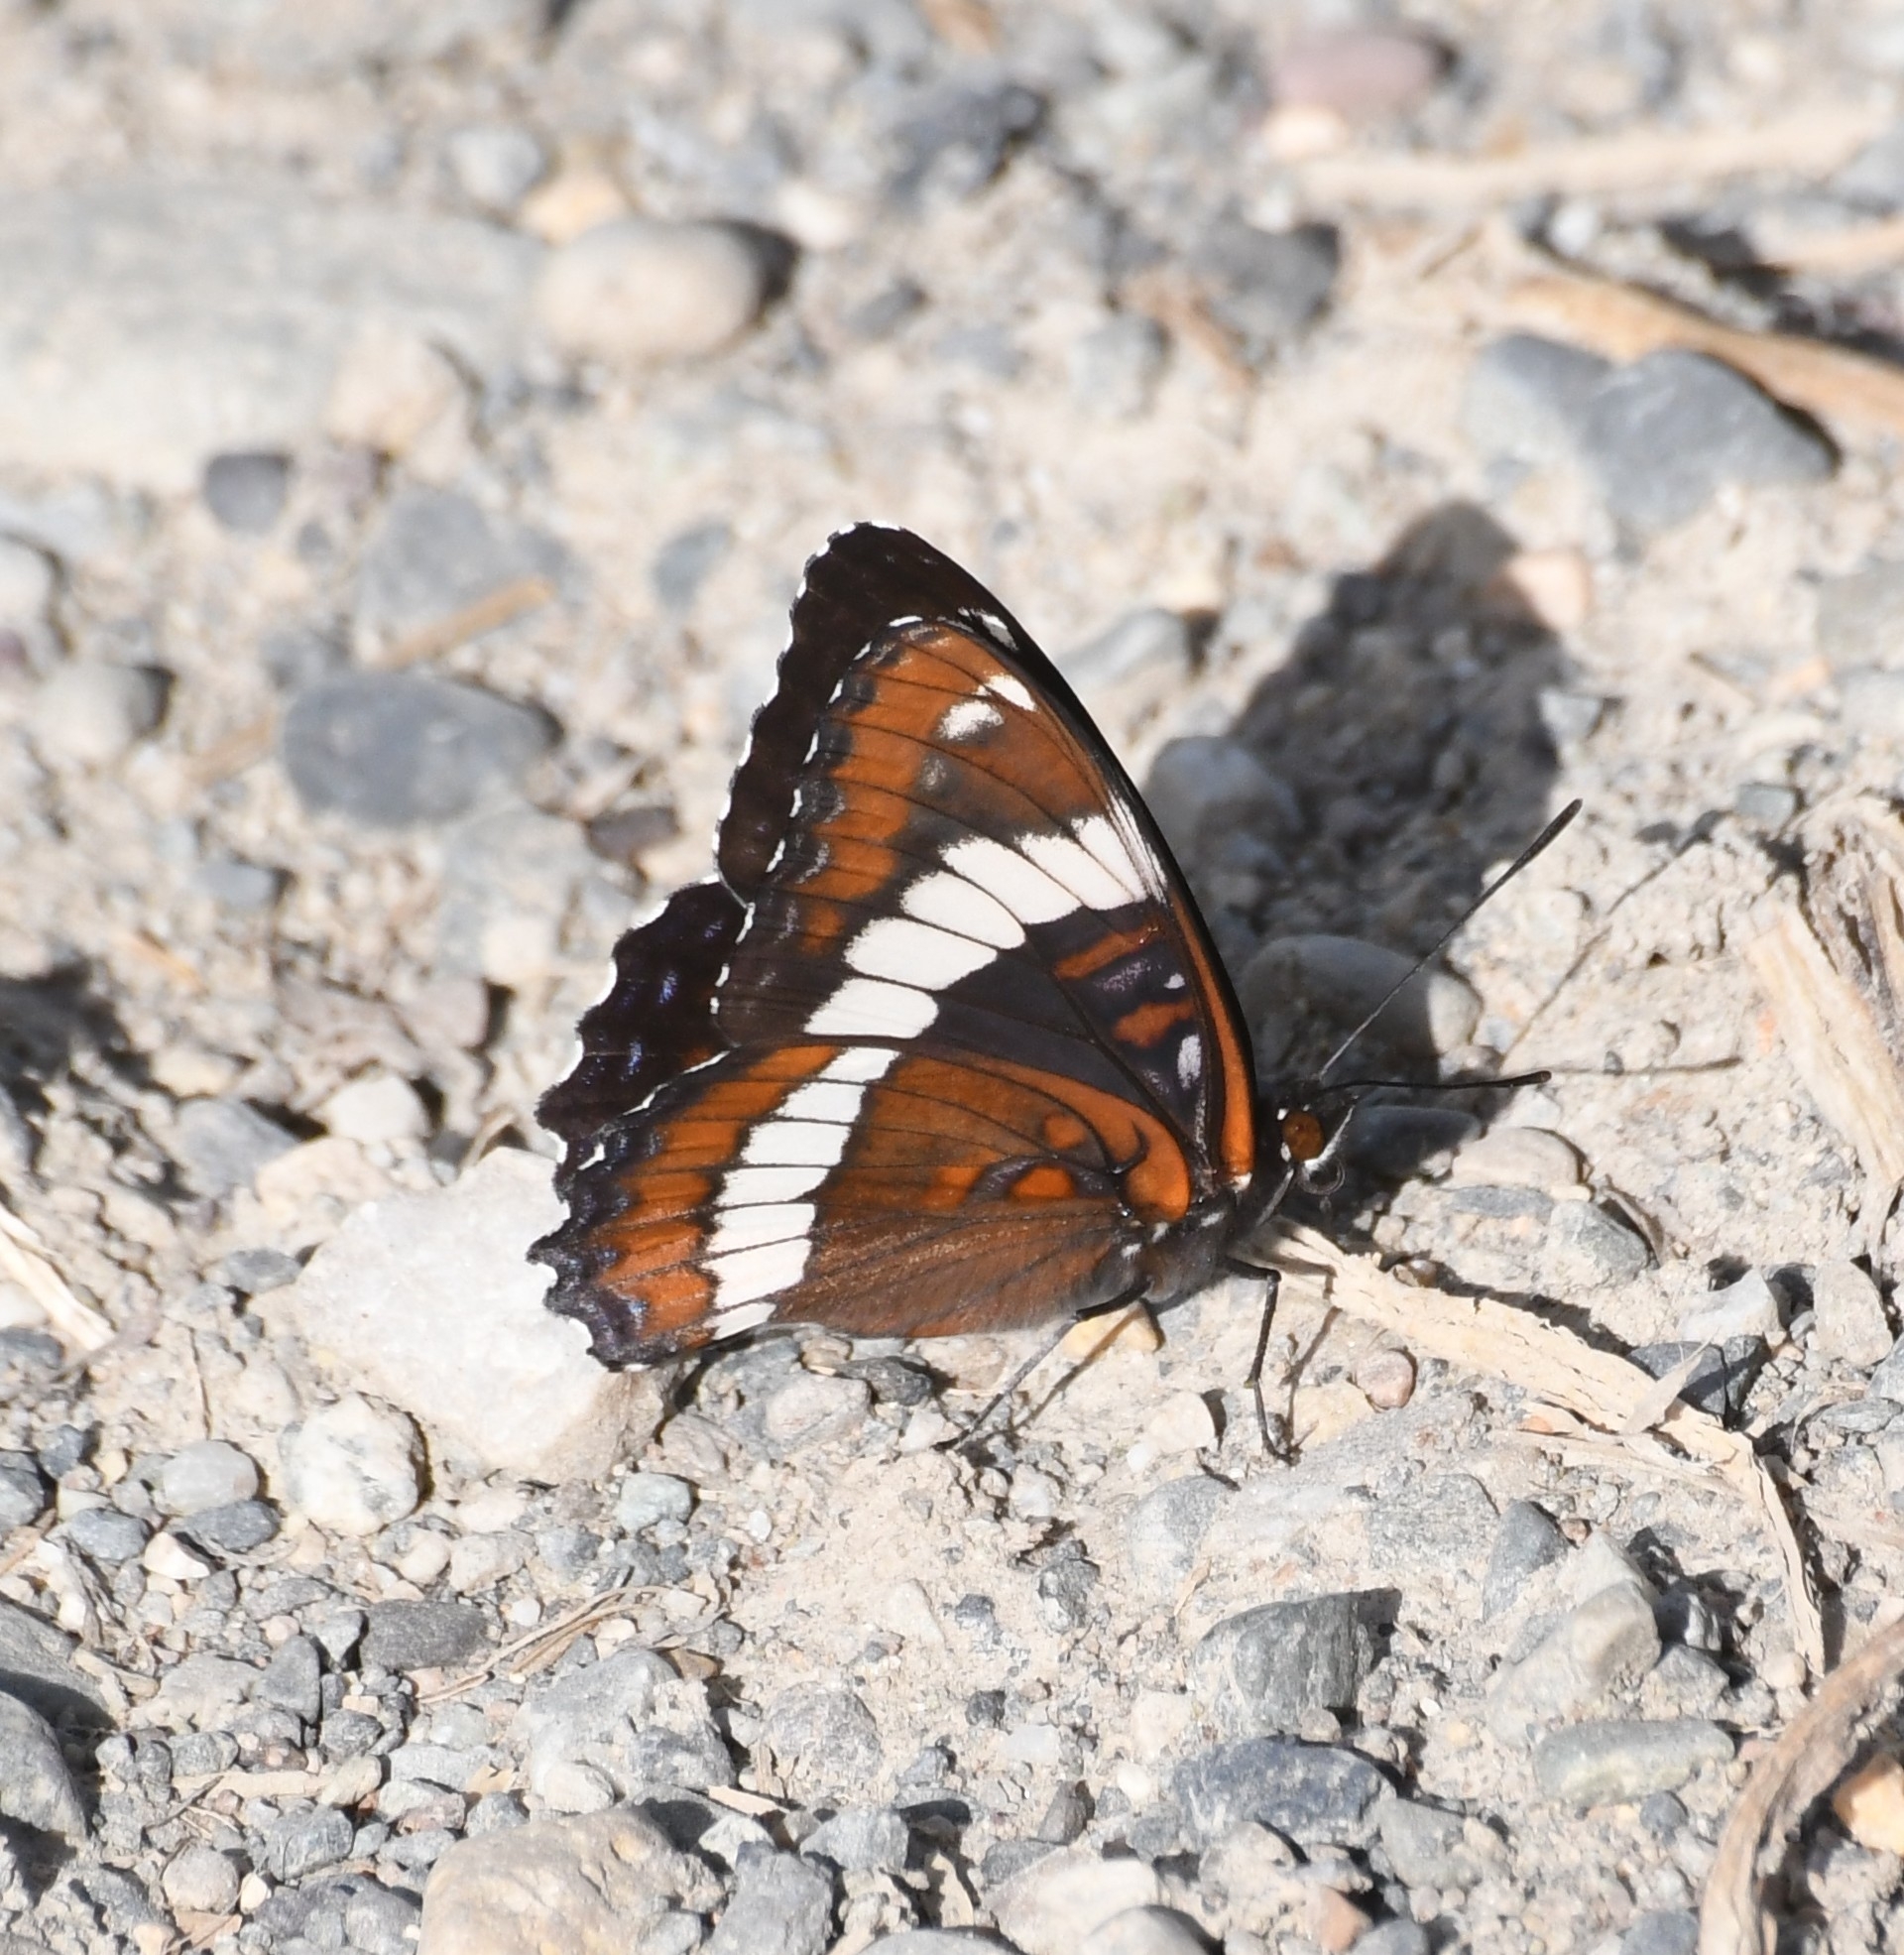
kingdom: Animalia
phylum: Arthropoda
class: Insecta
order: Lepidoptera
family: Nymphalidae
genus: Limenitis
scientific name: Limenitis arthemis
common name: Red-spotted admiral
